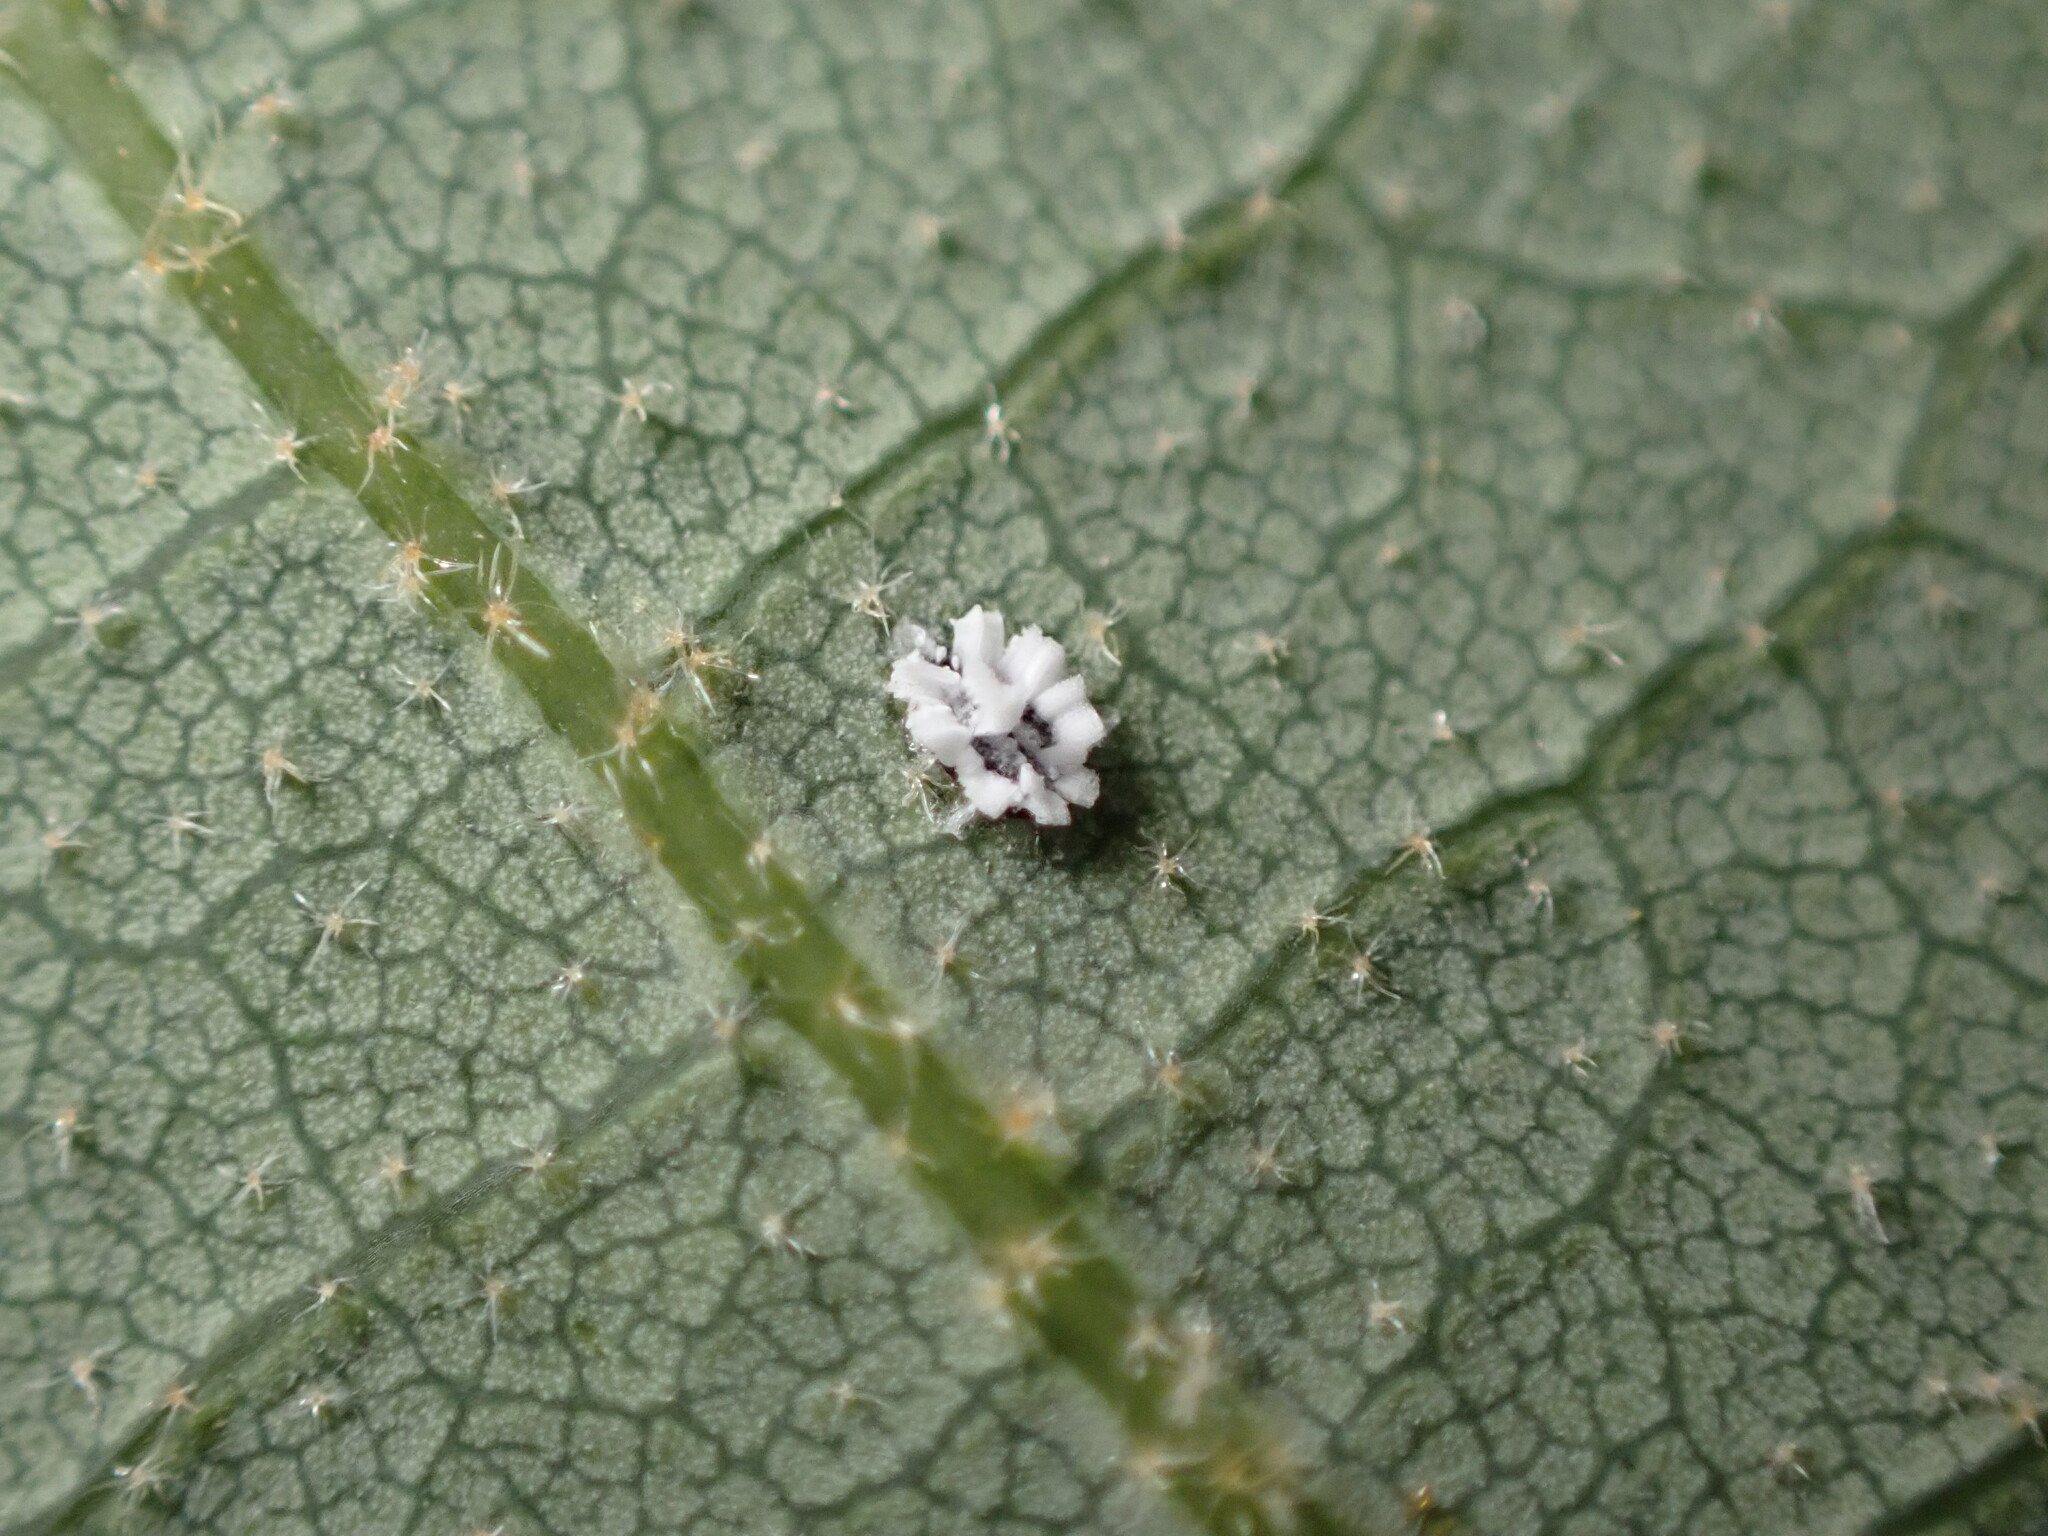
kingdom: Animalia
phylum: Arthropoda
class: Insecta
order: Hemiptera
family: Aleyrodidae
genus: Aleuroplatus
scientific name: Aleuroplatus coronata
